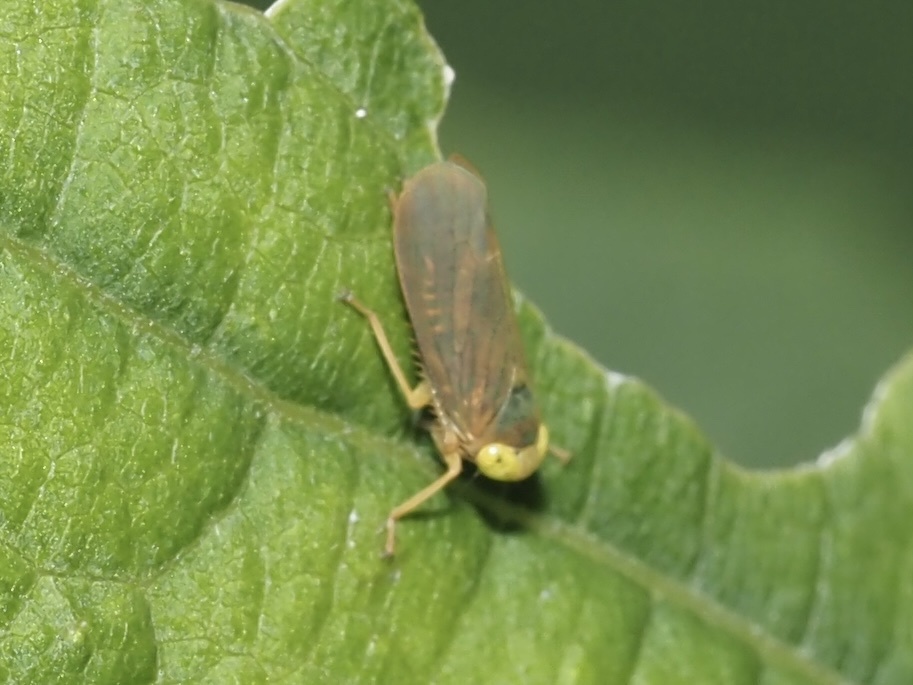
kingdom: Animalia
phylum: Arthropoda
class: Insecta
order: Hemiptera
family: Cicadellidae
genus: Jikradia
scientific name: Jikradia olitoria
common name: Coppery leafhopper
